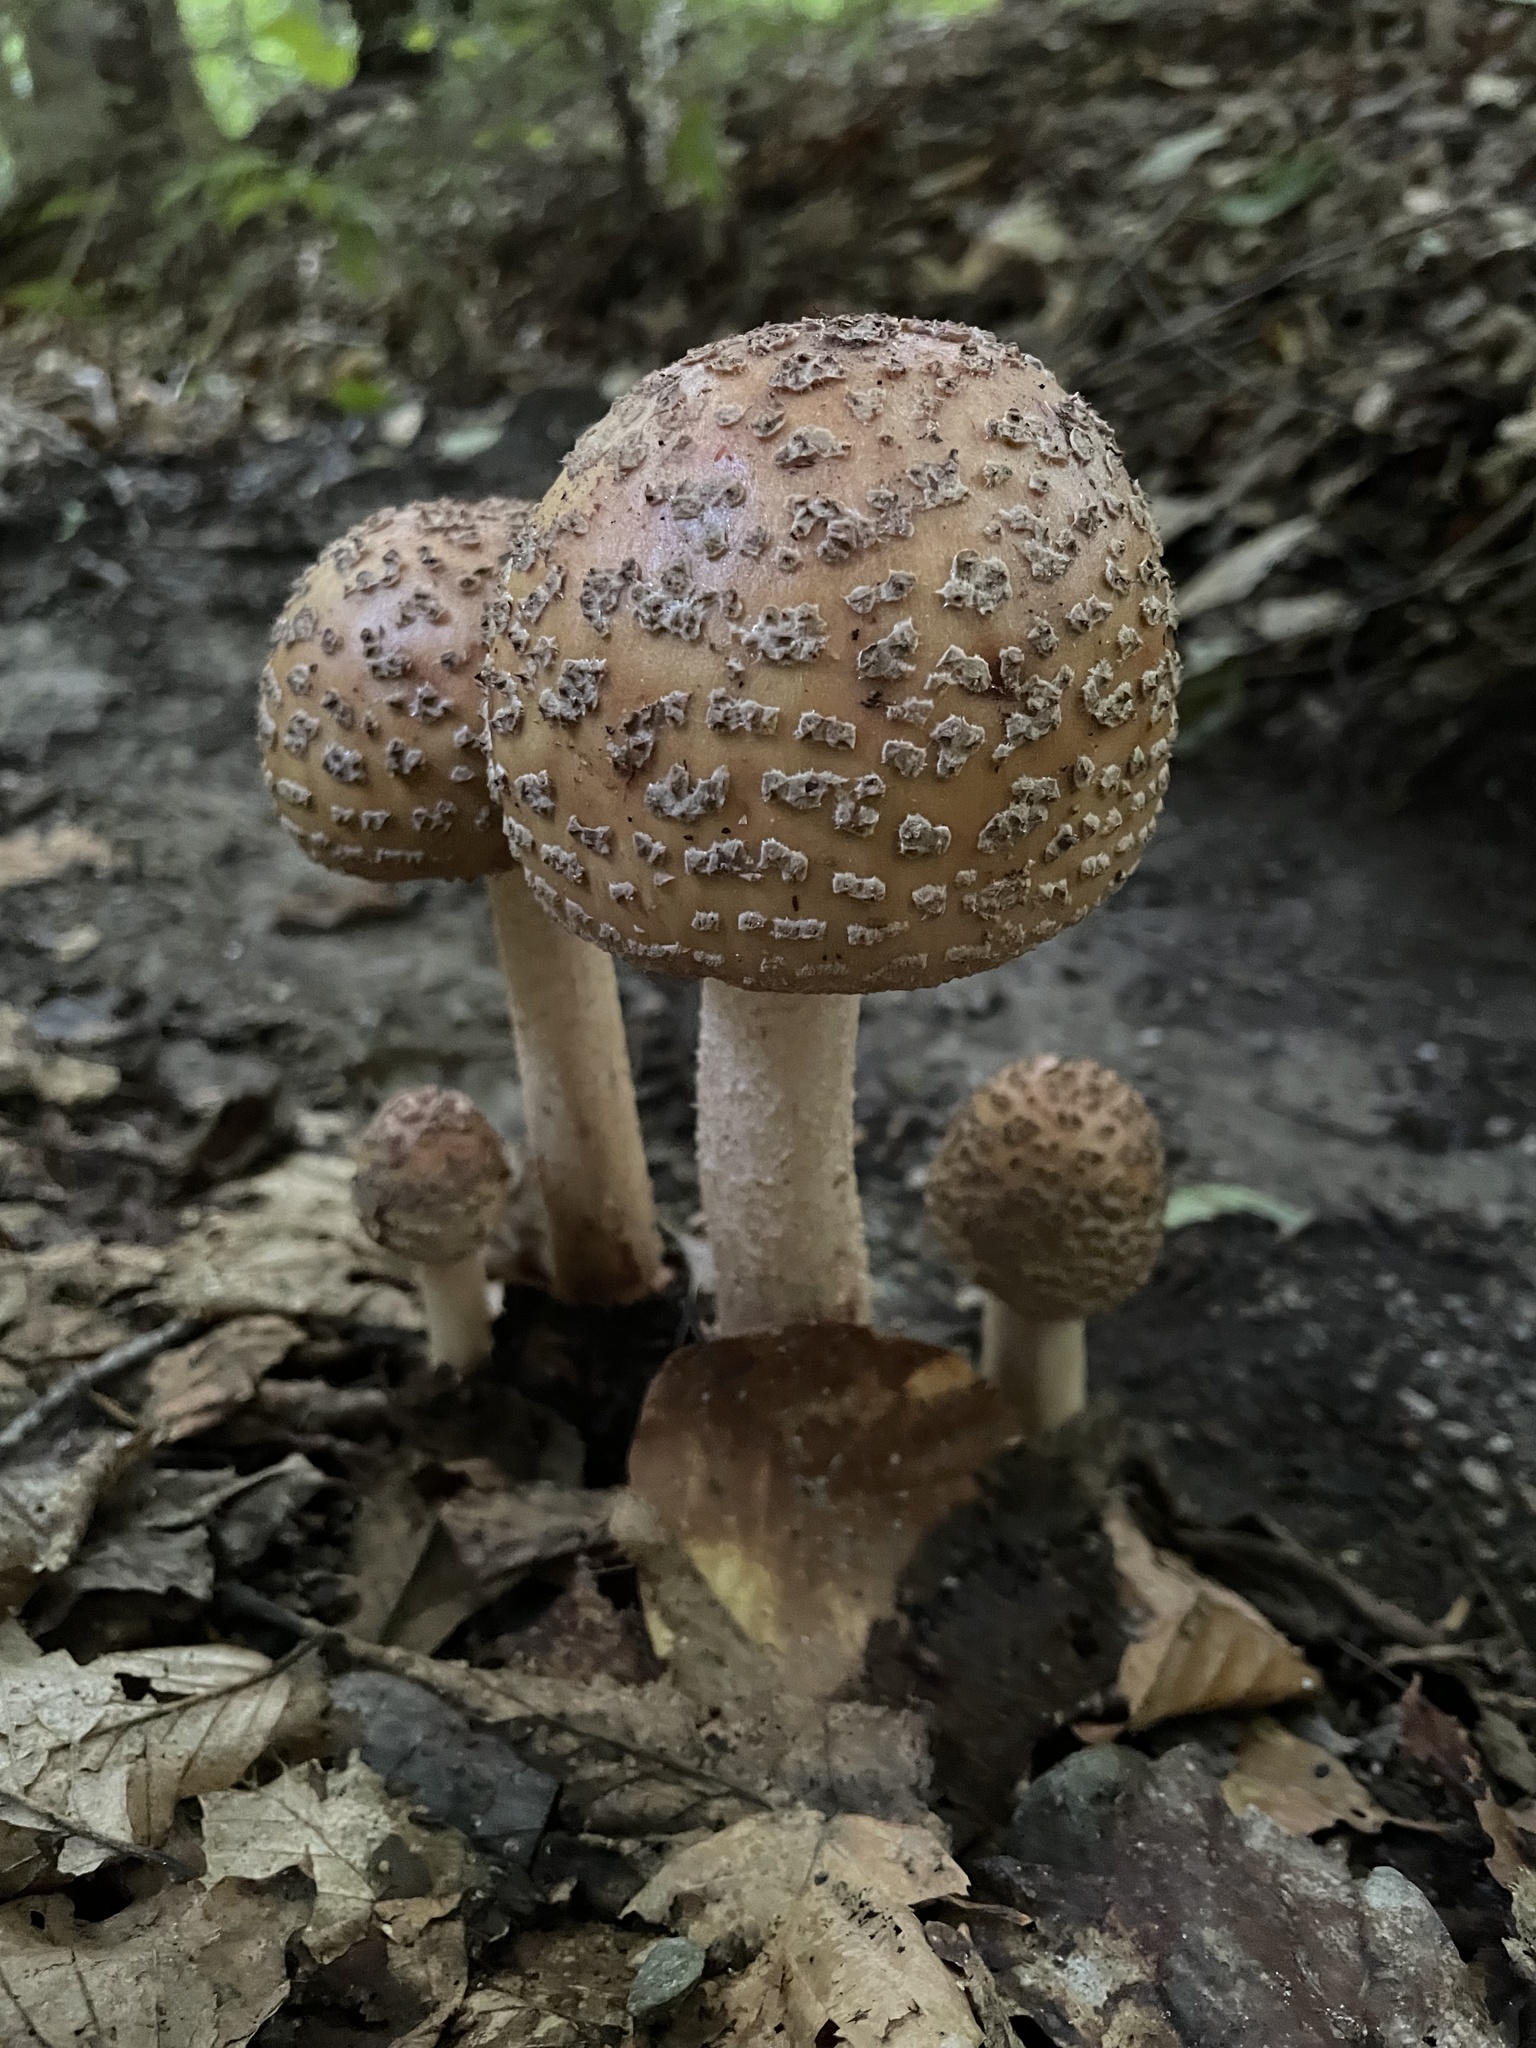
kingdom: Fungi
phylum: Basidiomycota
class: Agaricomycetes
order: Agaricales
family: Amanitaceae
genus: Amanita
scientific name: Amanita rubescens
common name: Blusher
